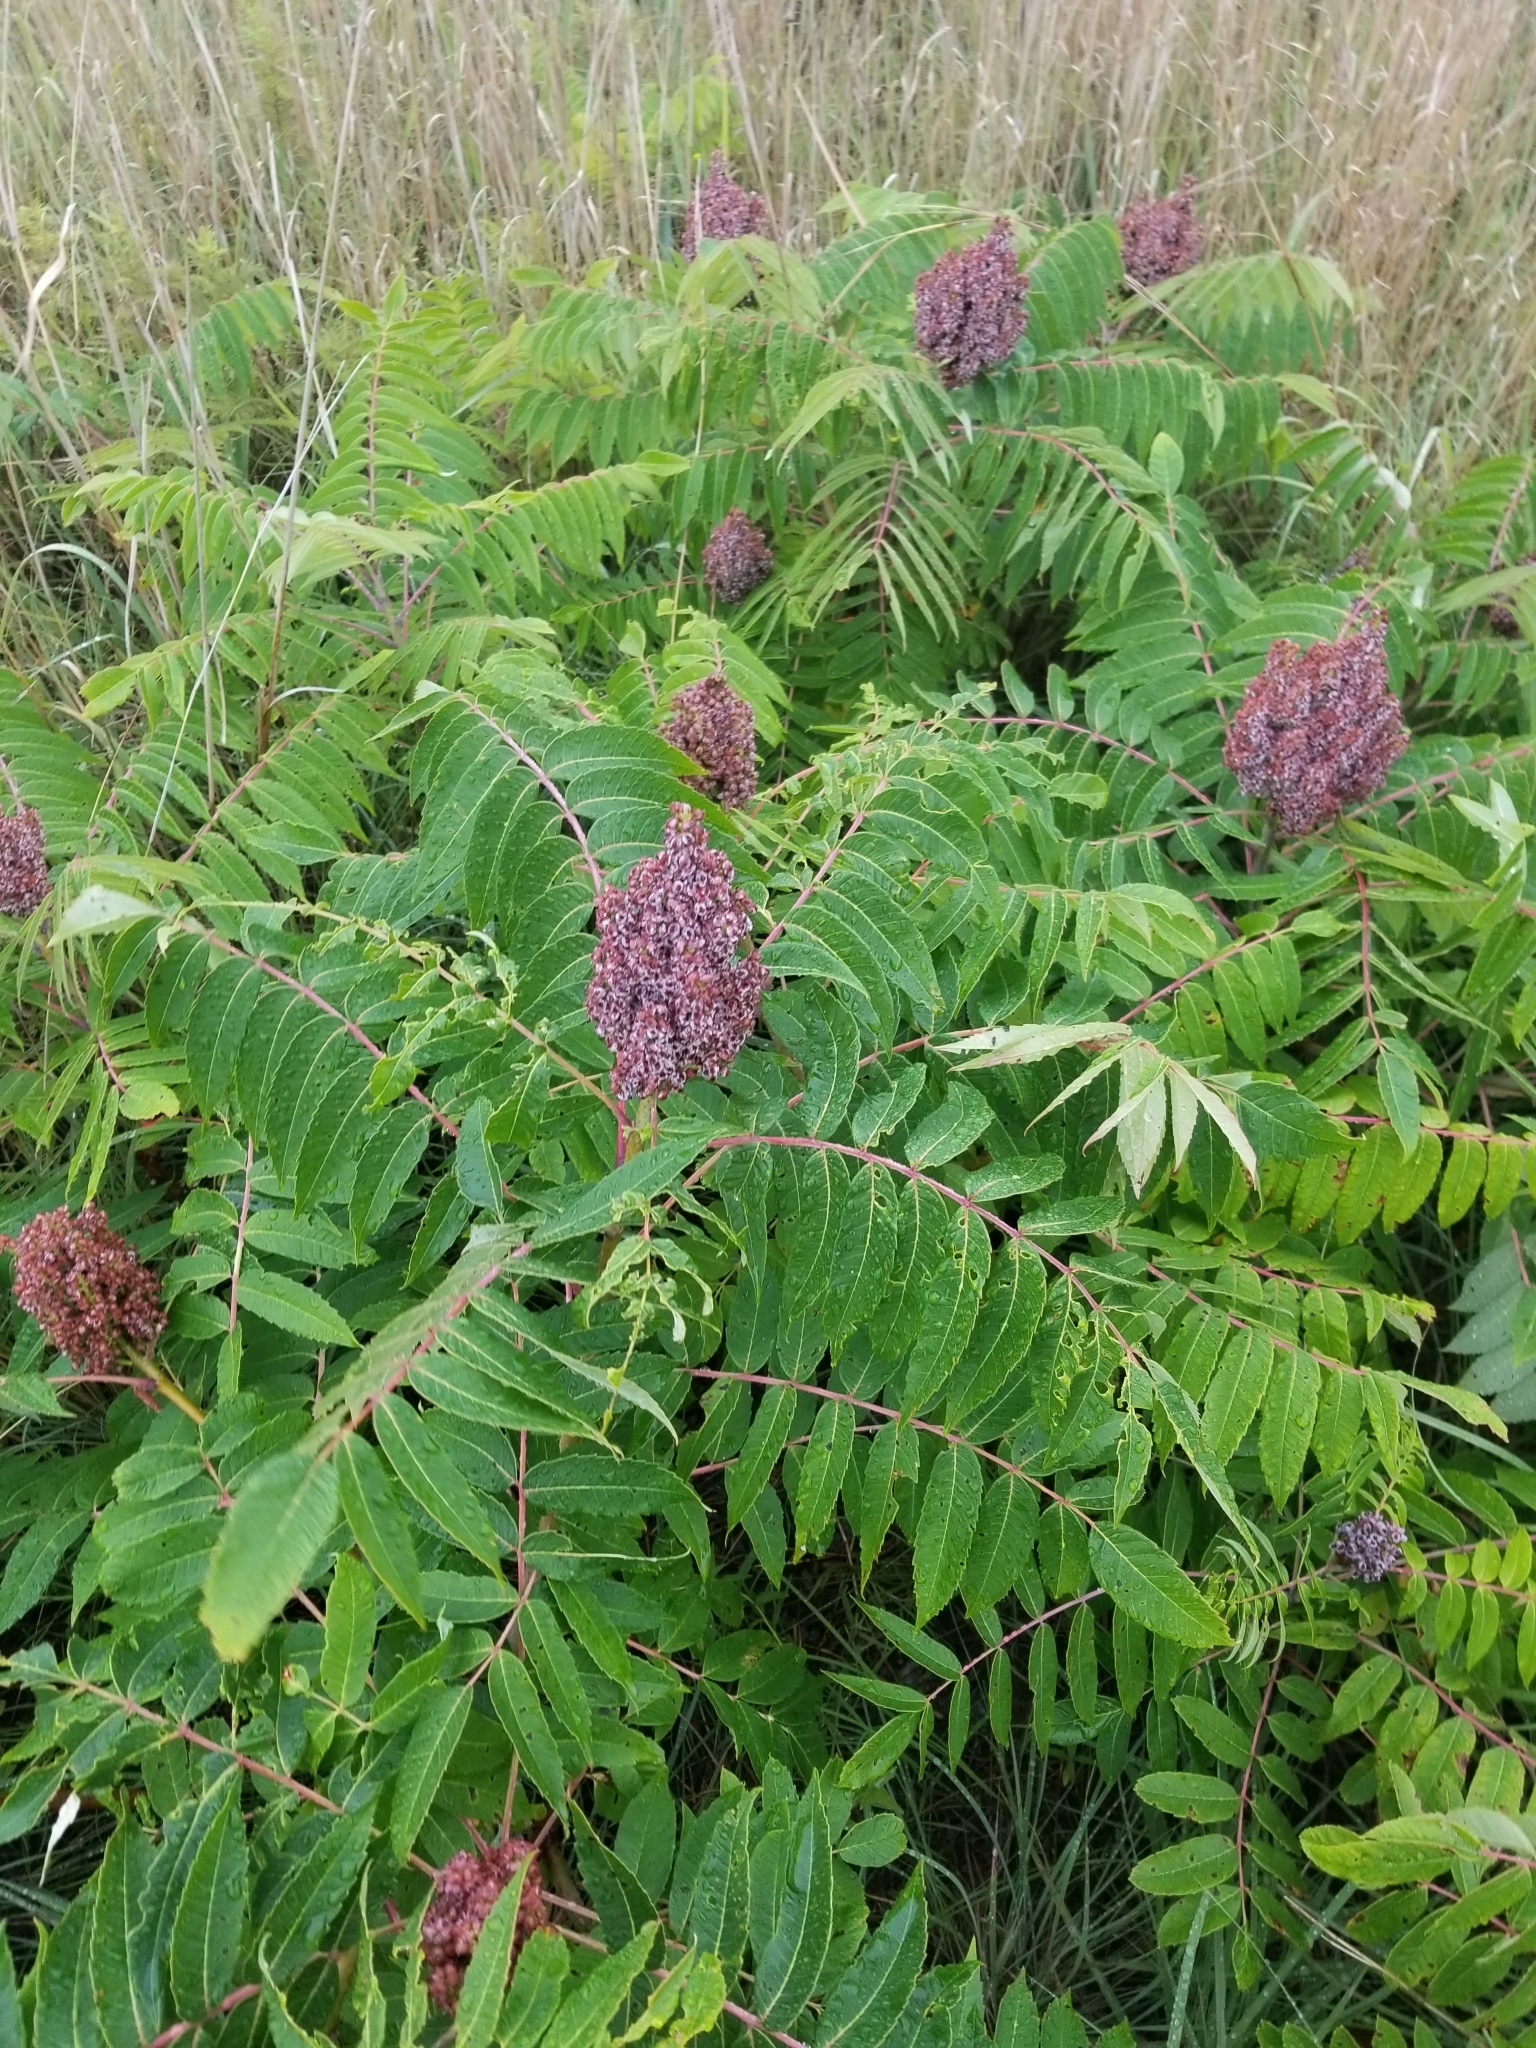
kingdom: Plantae
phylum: Tracheophyta
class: Magnoliopsida
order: Sapindales
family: Anacardiaceae
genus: Rhus
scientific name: Rhus glabra
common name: Scarlet sumac
